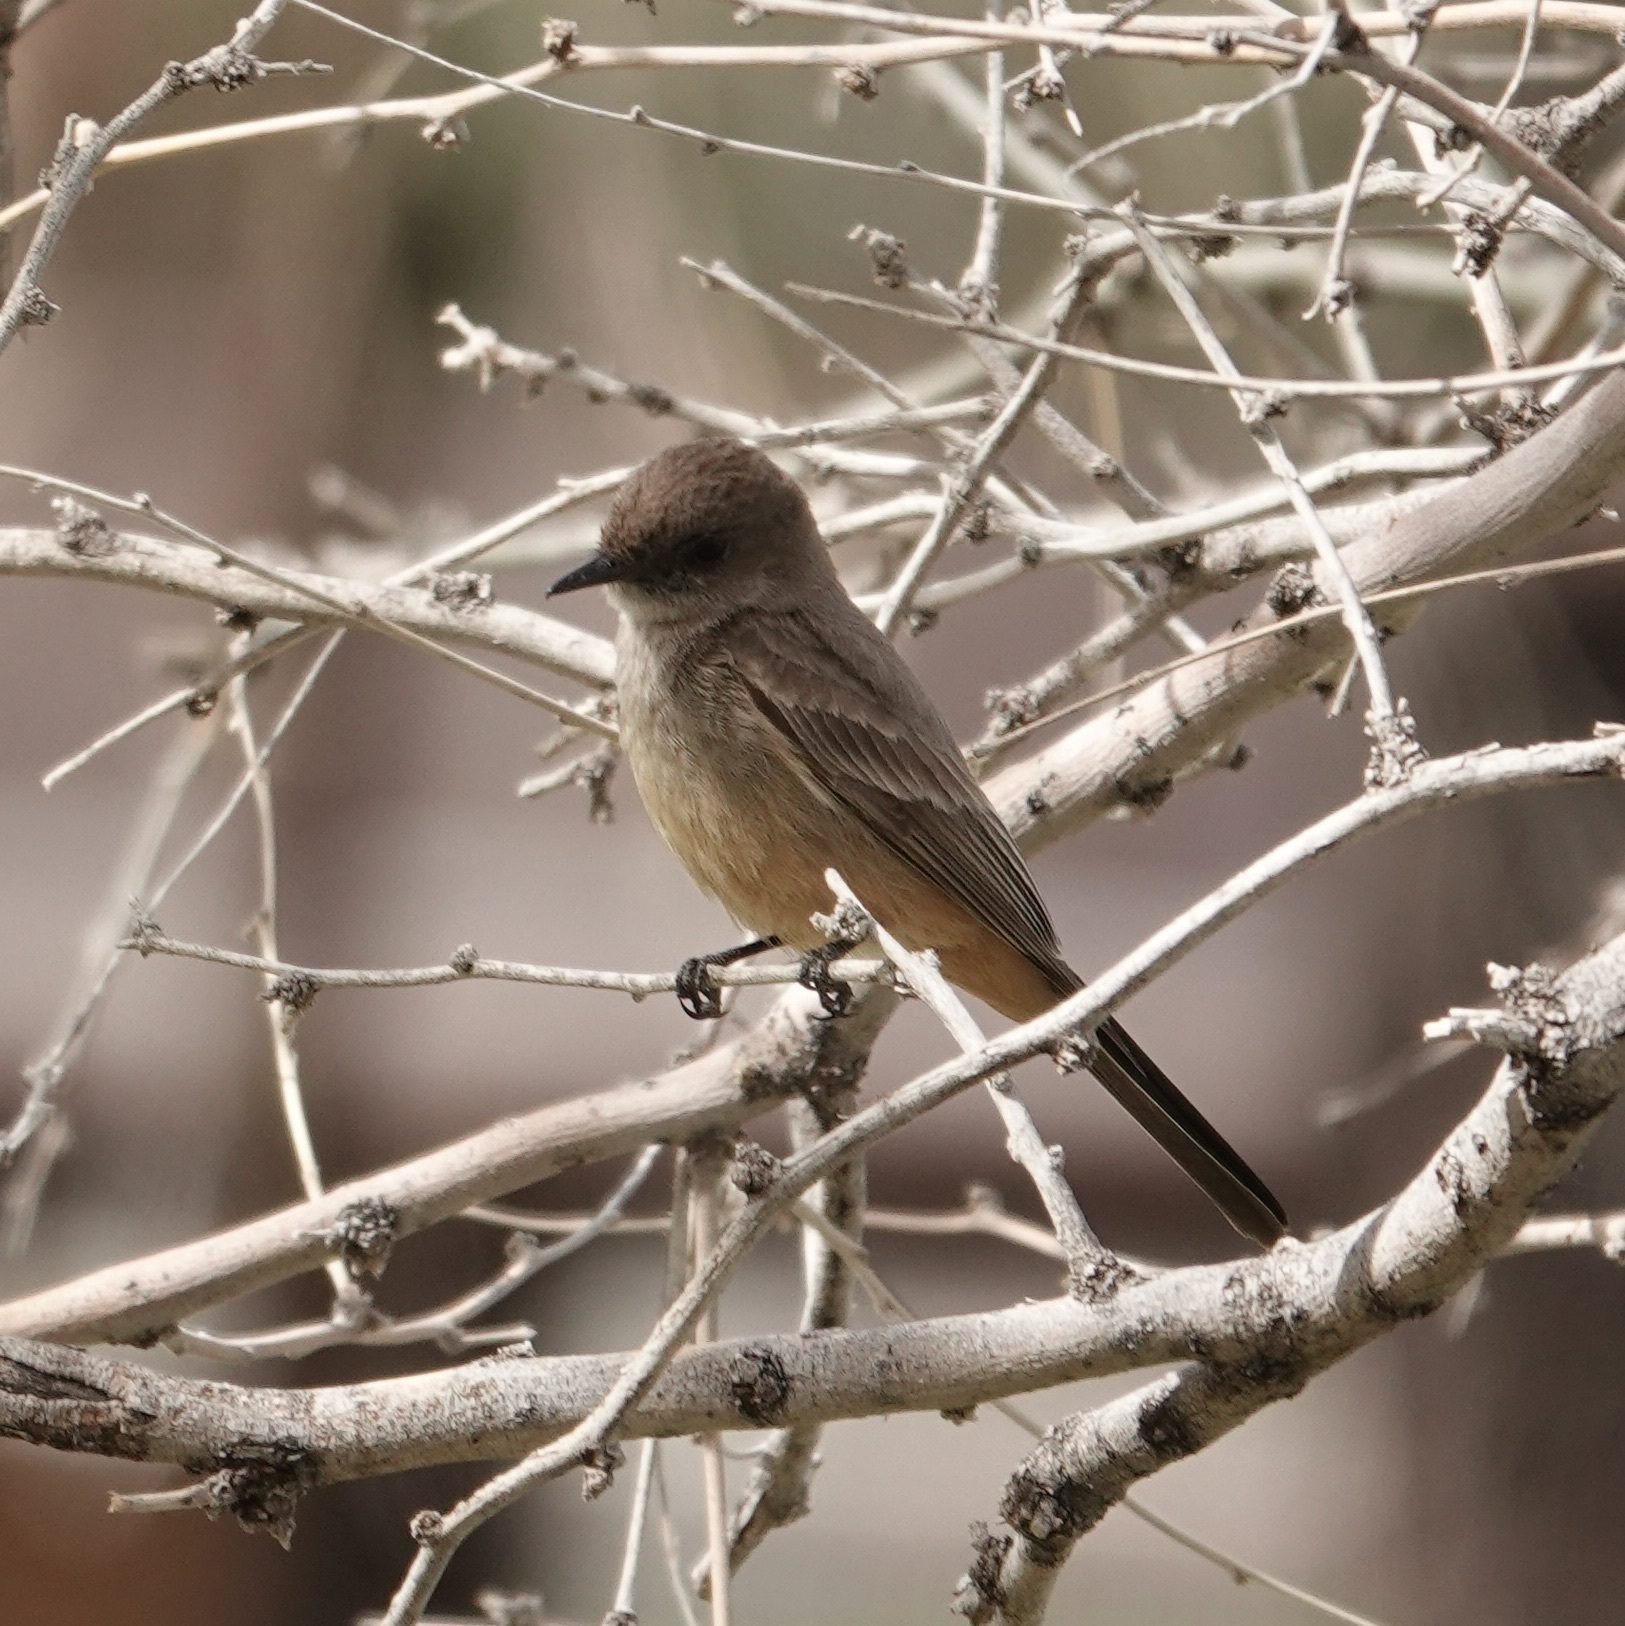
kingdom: Animalia
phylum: Chordata
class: Aves
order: Passeriformes
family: Tyrannidae
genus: Sayornis
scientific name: Sayornis saya
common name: Say's phoebe
